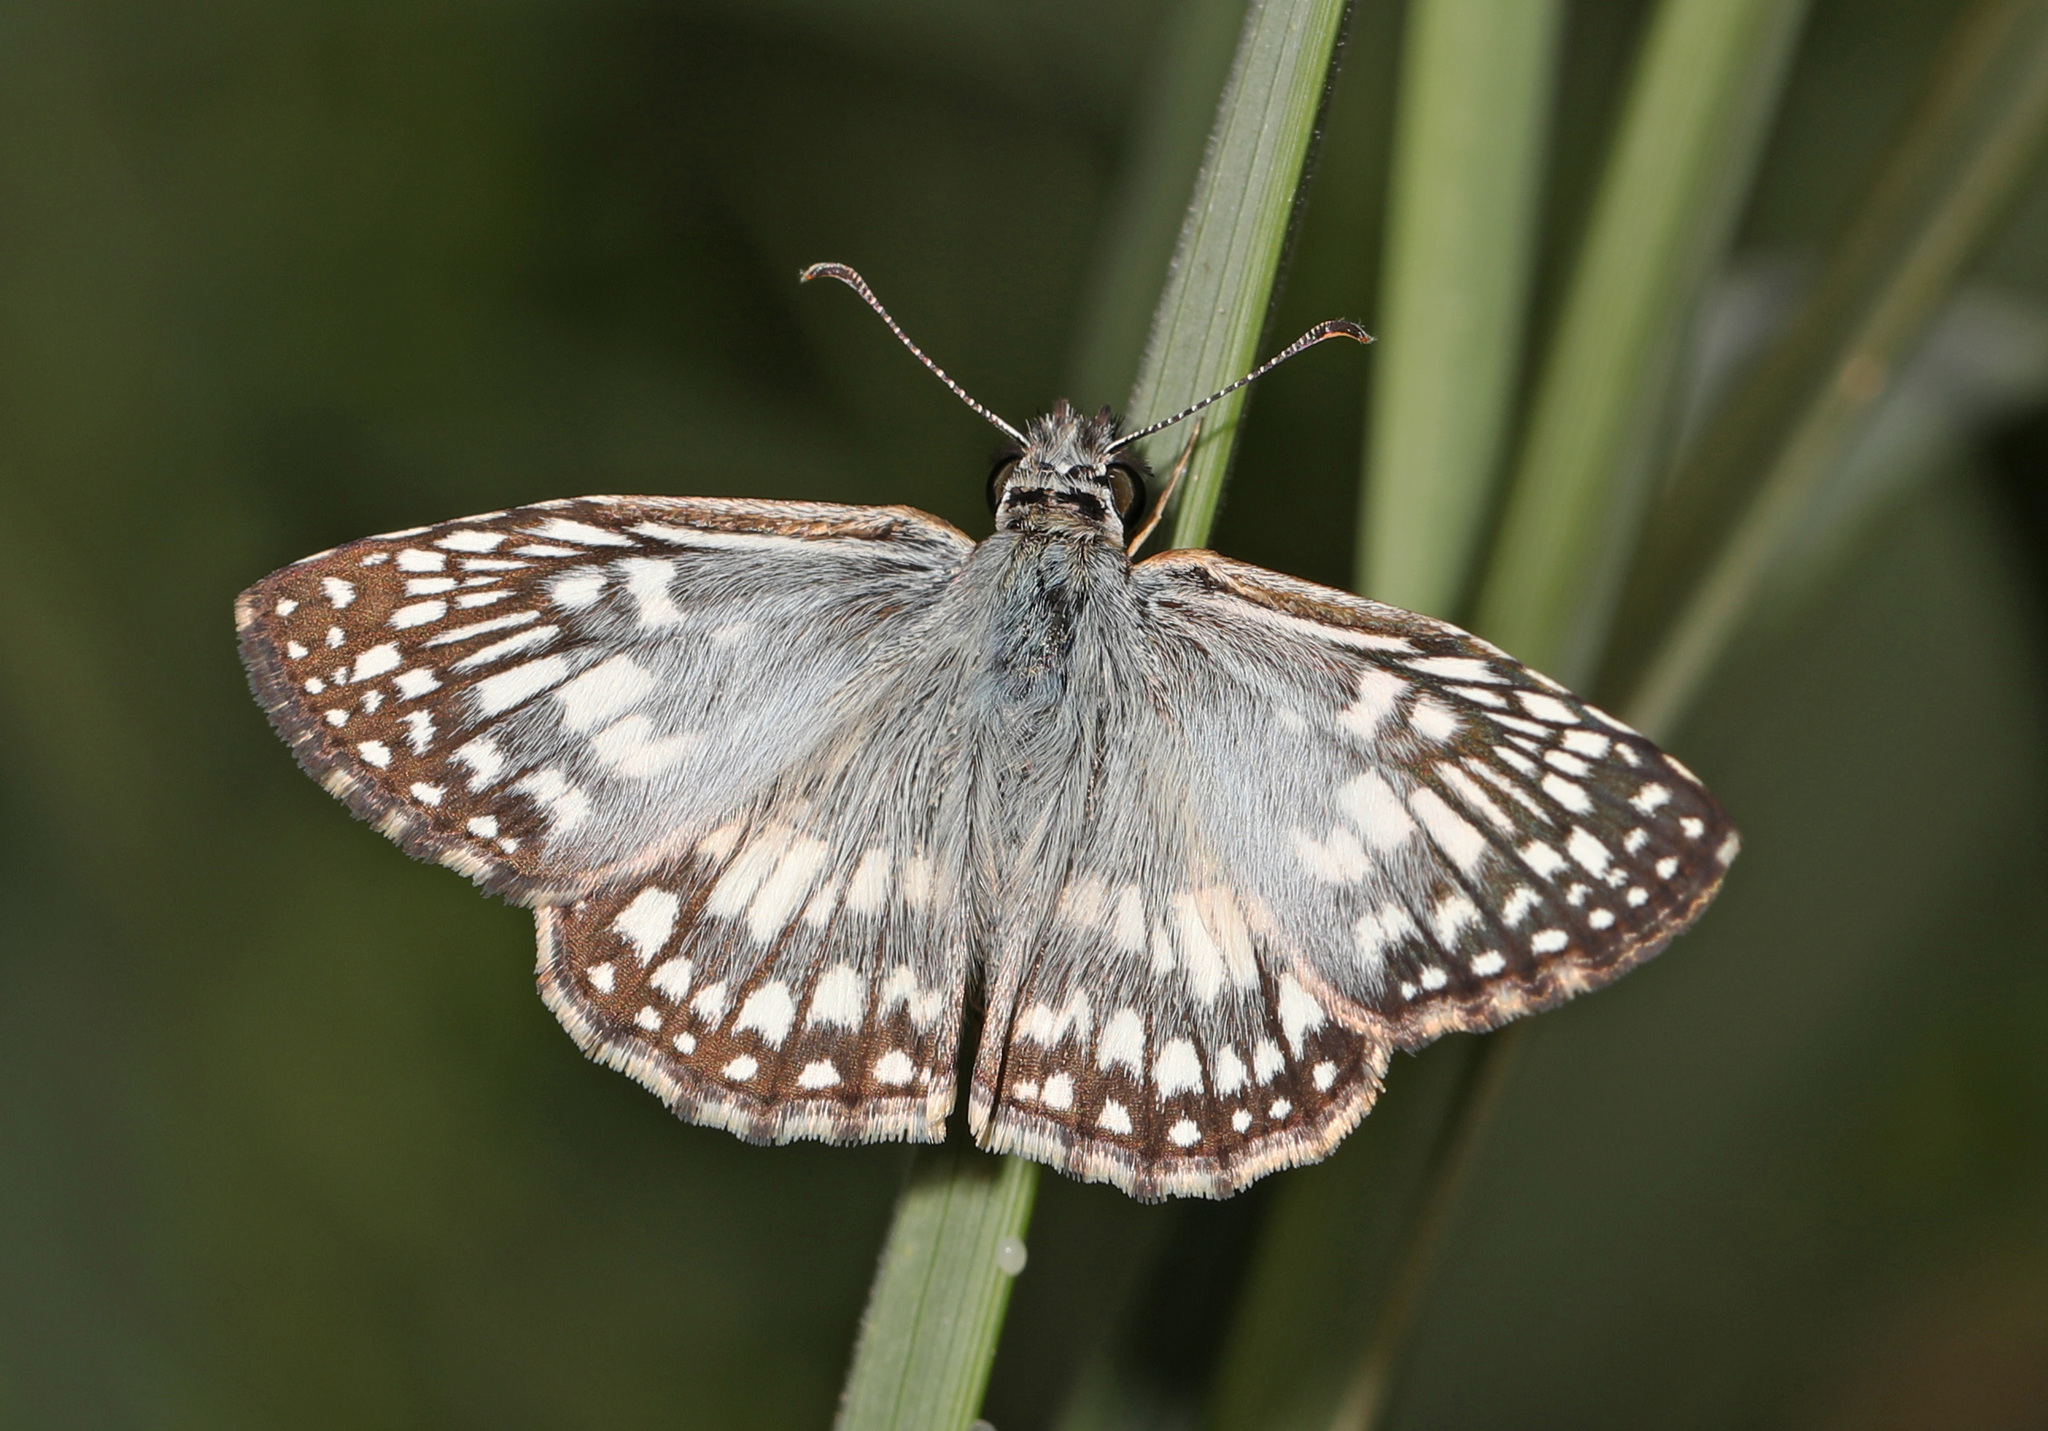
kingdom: Animalia
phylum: Arthropoda
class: Insecta
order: Lepidoptera
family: Hesperiidae
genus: Pyrgus
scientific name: Pyrgus oileus
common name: Tropical checkered-skipper
